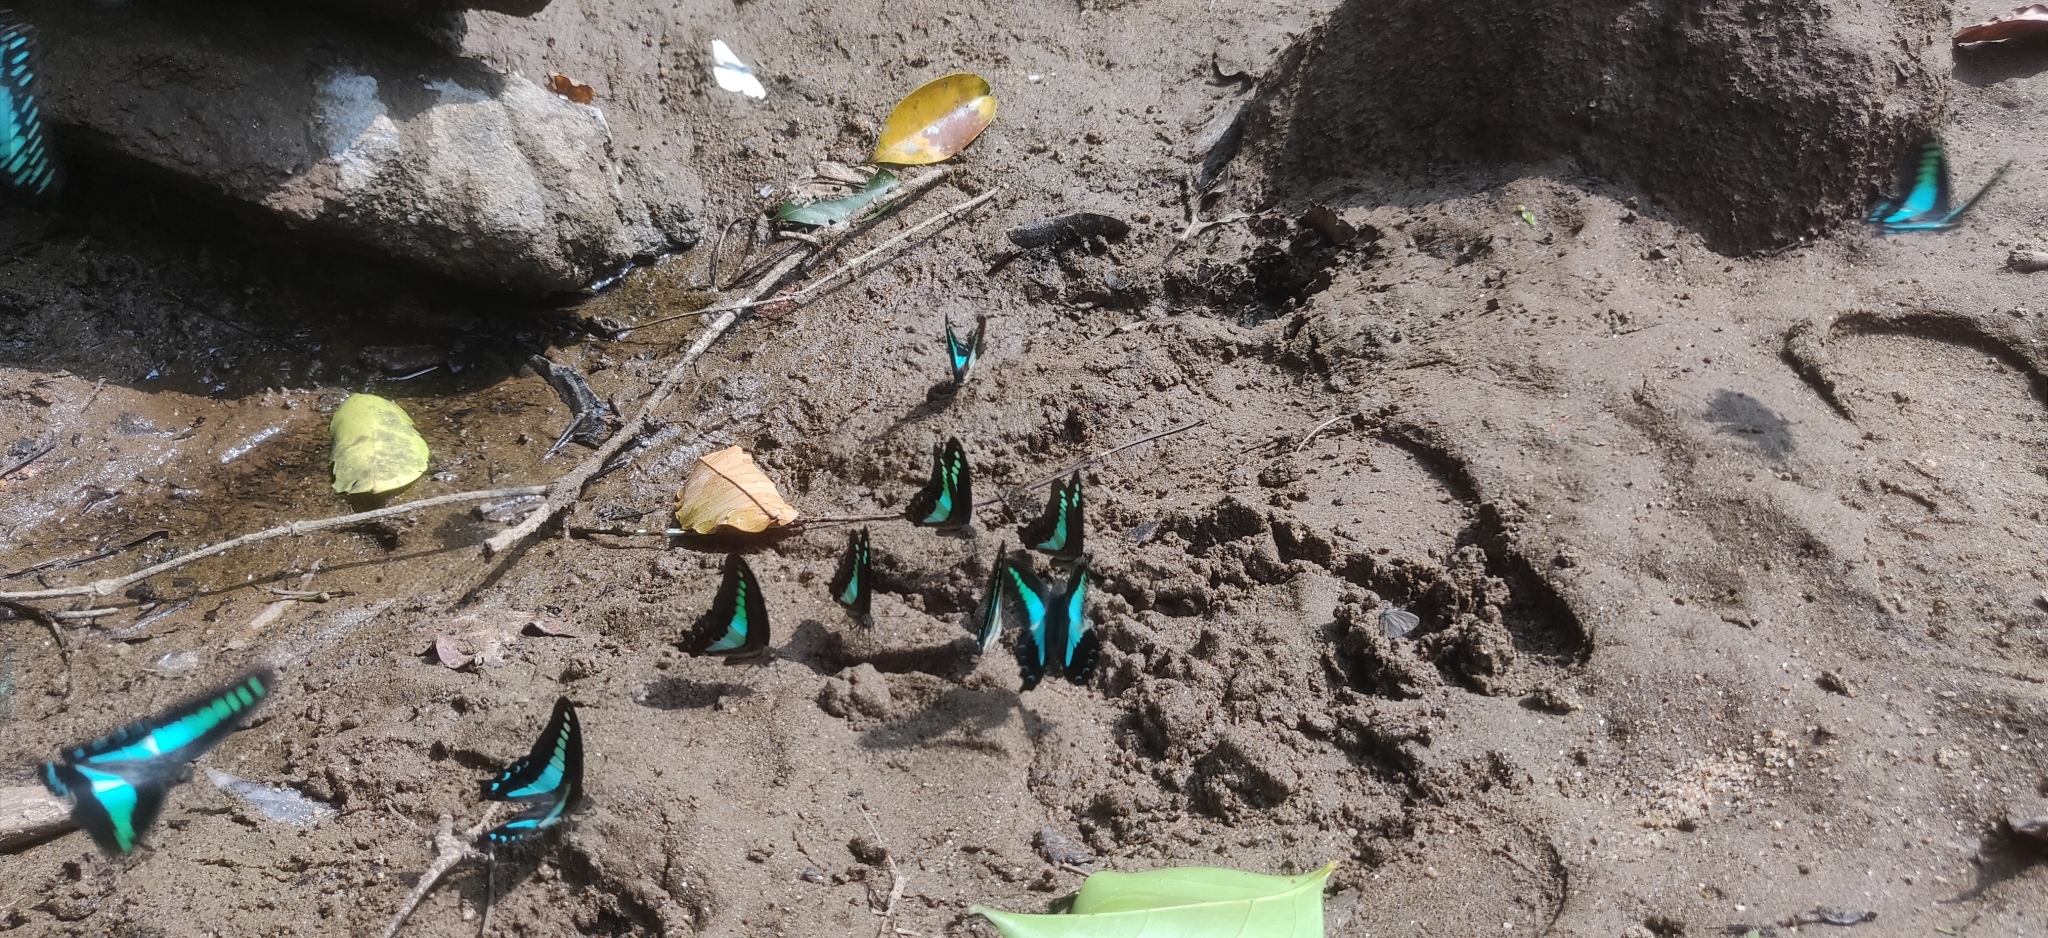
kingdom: Animalia
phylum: Arthropoda
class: Insecta
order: Lepidoptera
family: Papilionidae
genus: Graphium
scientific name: Graphium
